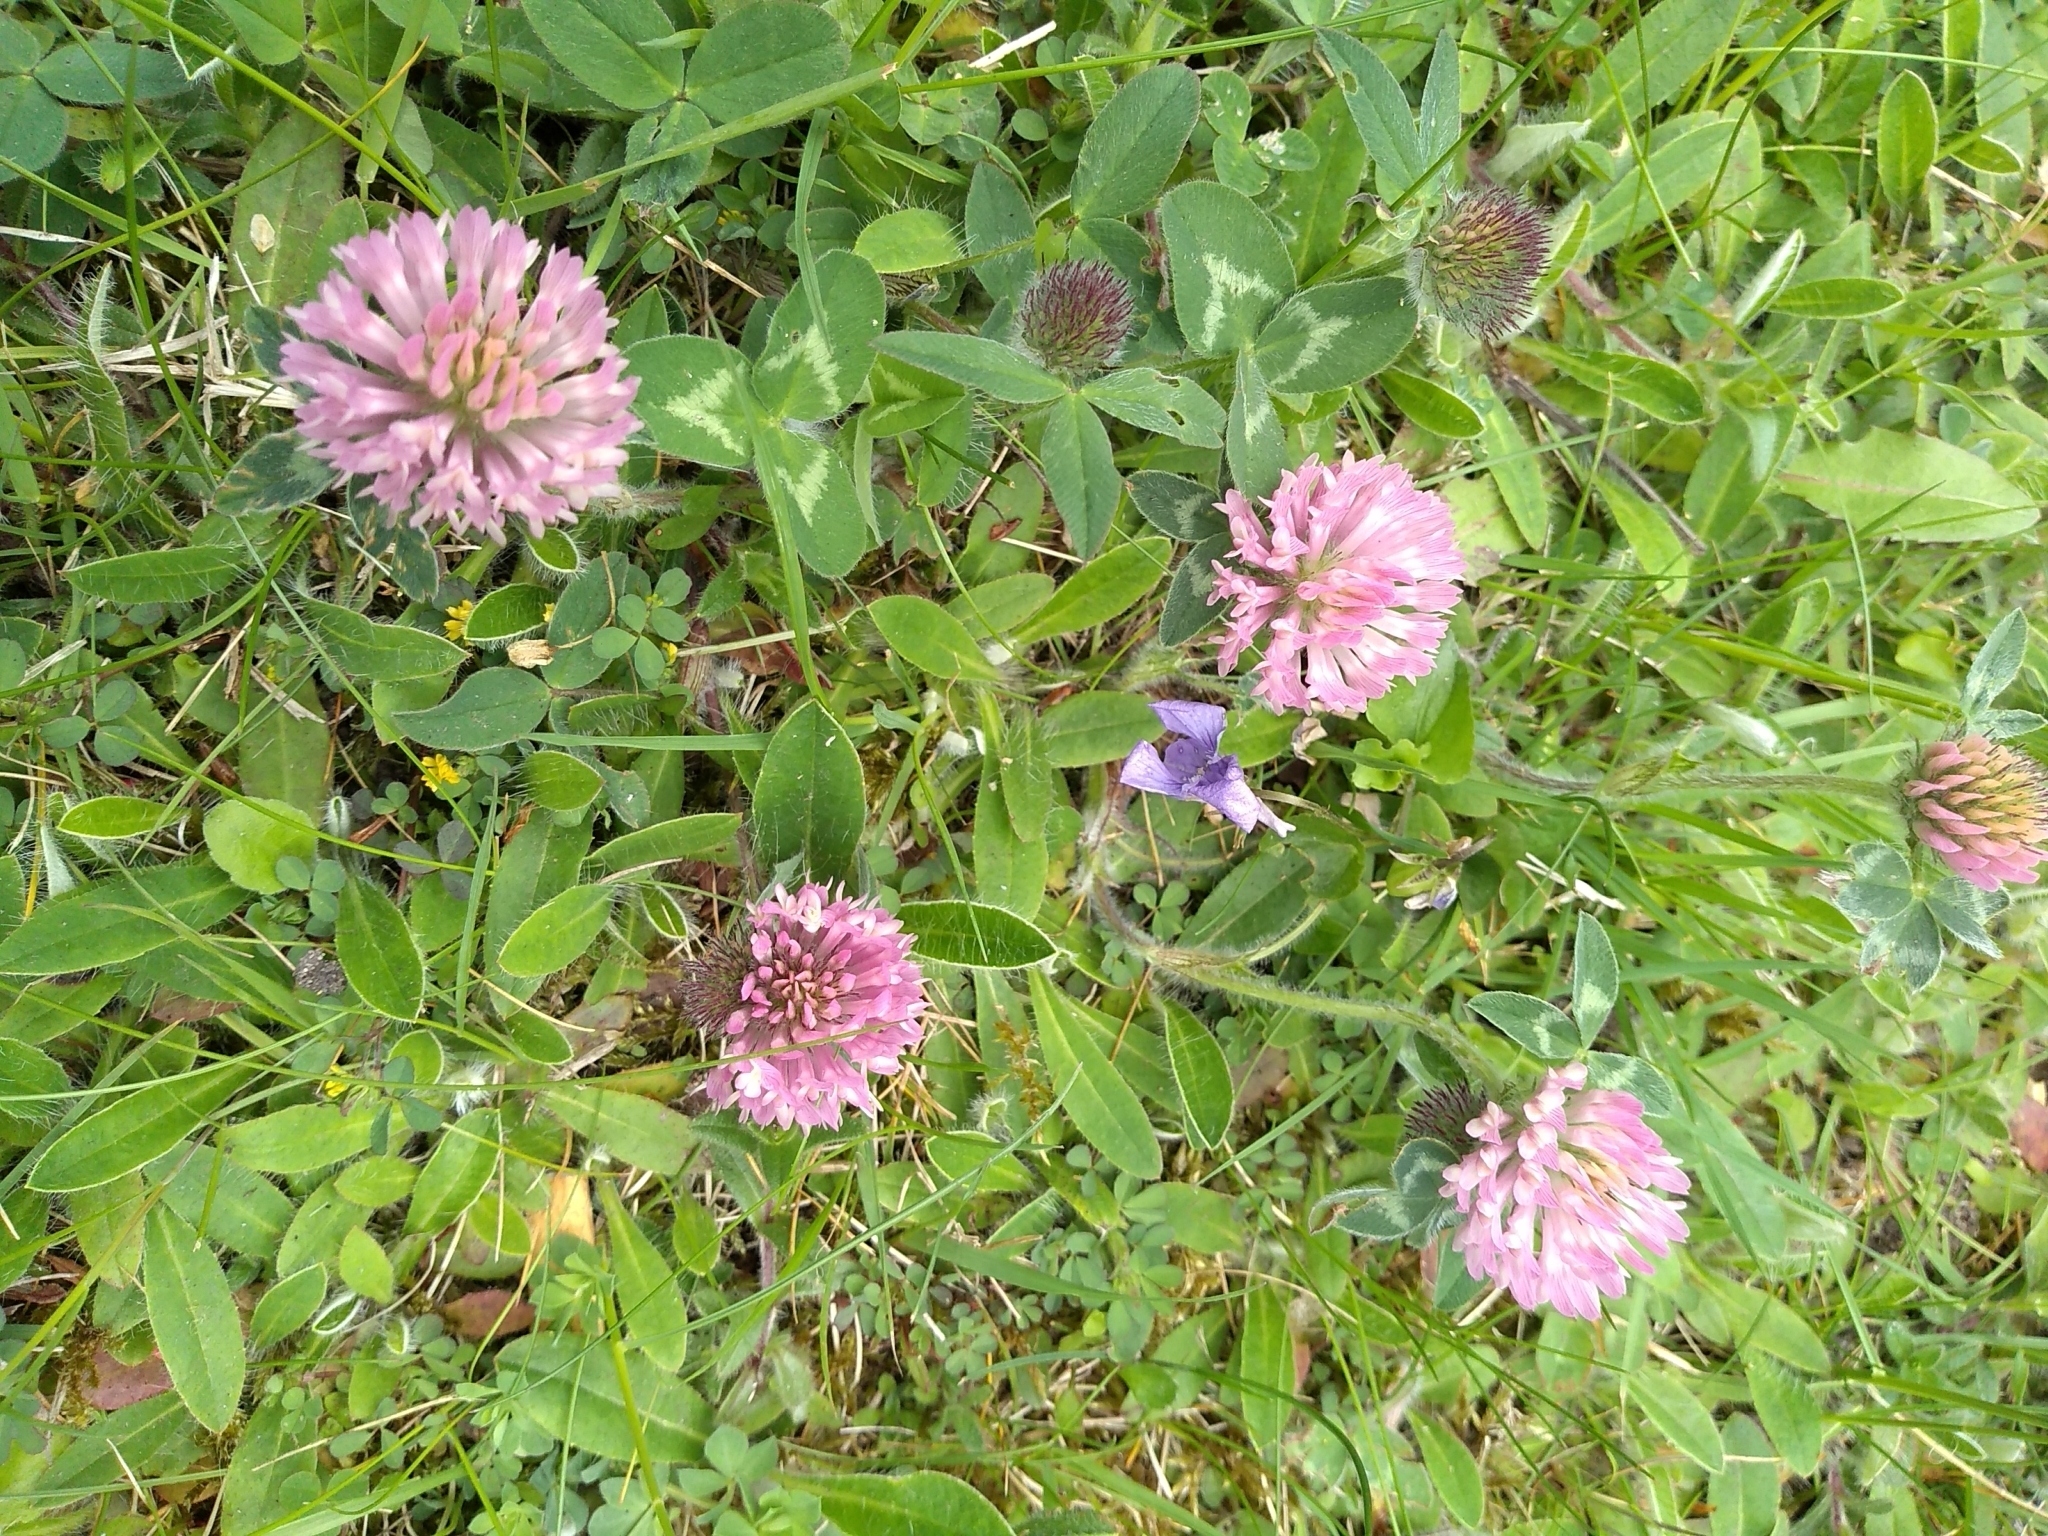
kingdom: Plantae
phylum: Tracheophyta
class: Magnoliopsida
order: Fabales
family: Fabaceae
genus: Trifolium
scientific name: Trifolium pratense
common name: Red clover
